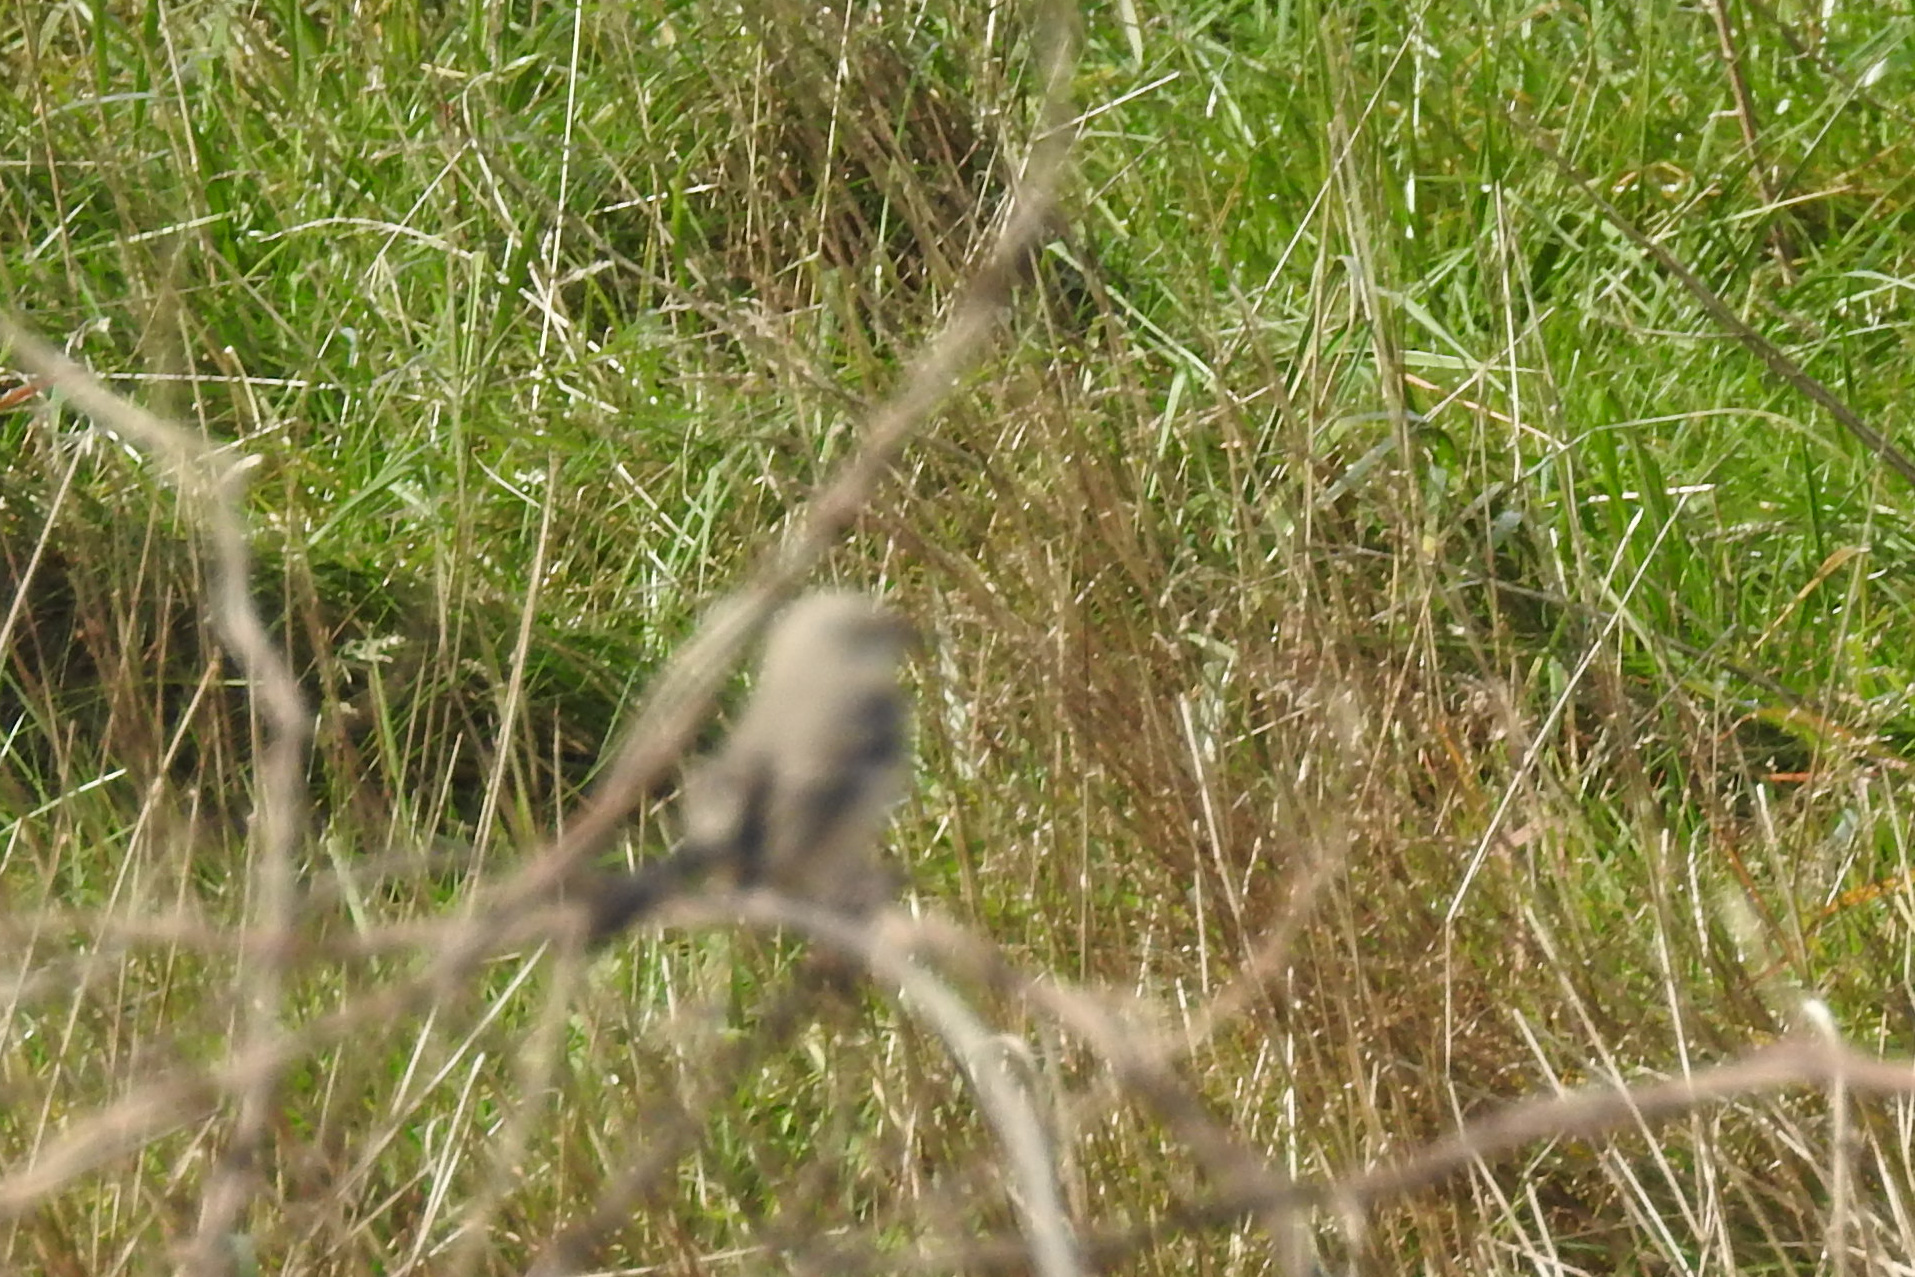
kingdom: Animalia
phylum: Chordata
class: Aves
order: Passeriformes
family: Mimidae
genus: Mimus
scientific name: Mimus polyglottos
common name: Northern mockingbird
